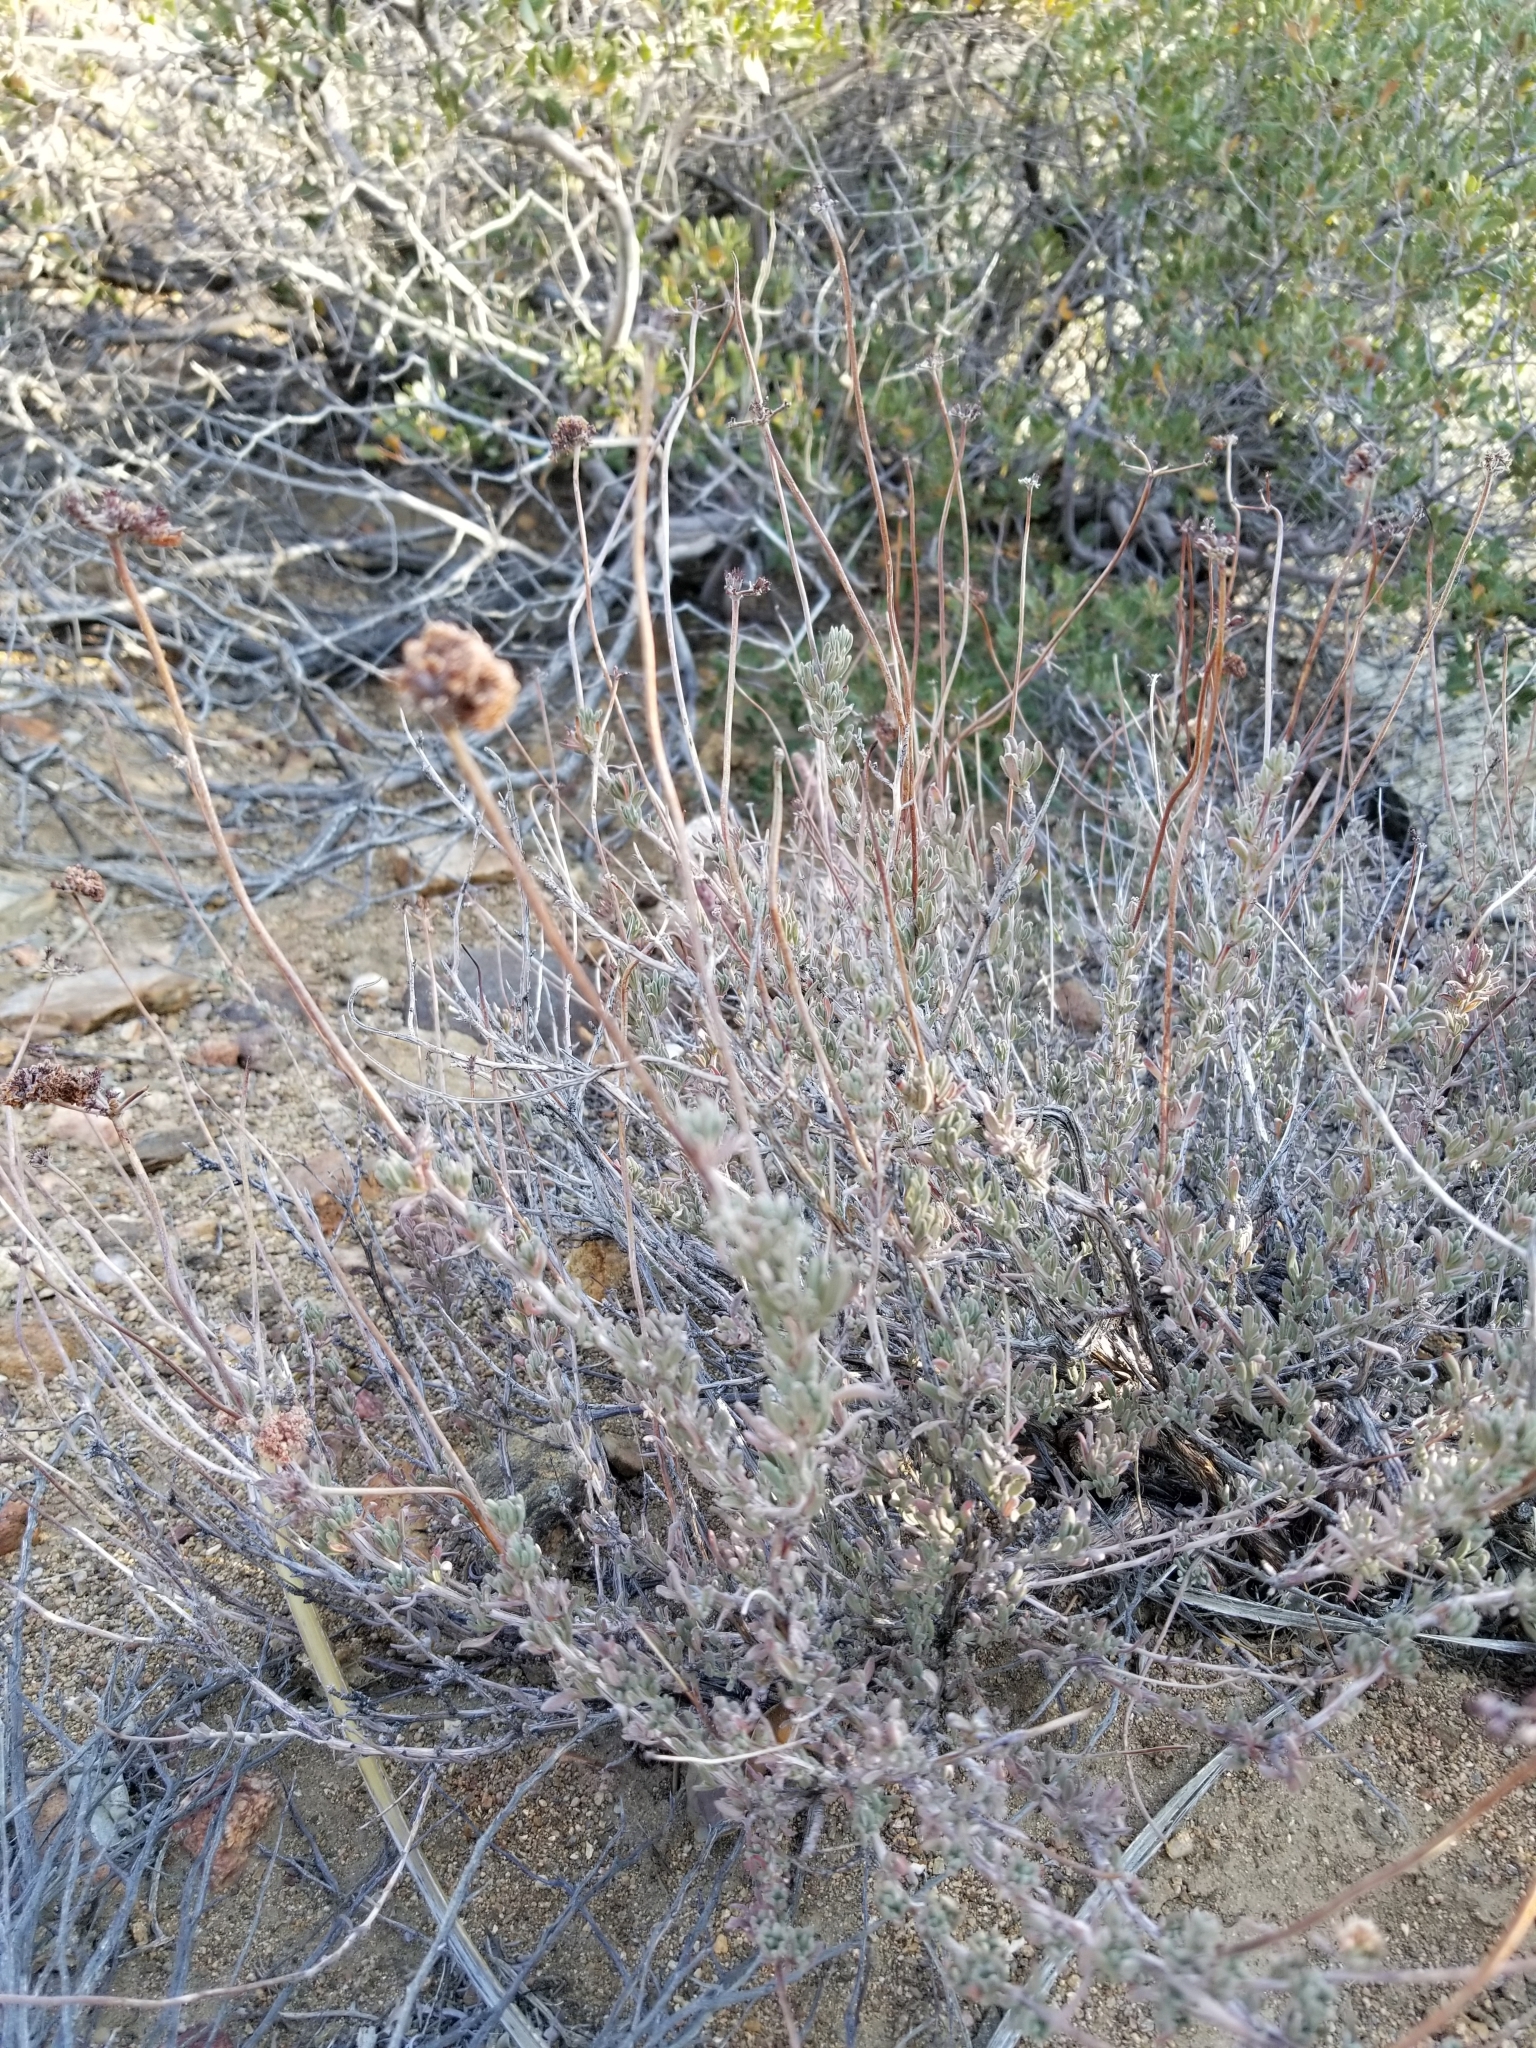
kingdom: Plantae
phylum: Tracheophyta
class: Magnoliopsida
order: Caryophyllales
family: Polygonaceae
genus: Eriogonum
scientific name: Eriogonum fasciculatum
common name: California wild buckwheat
